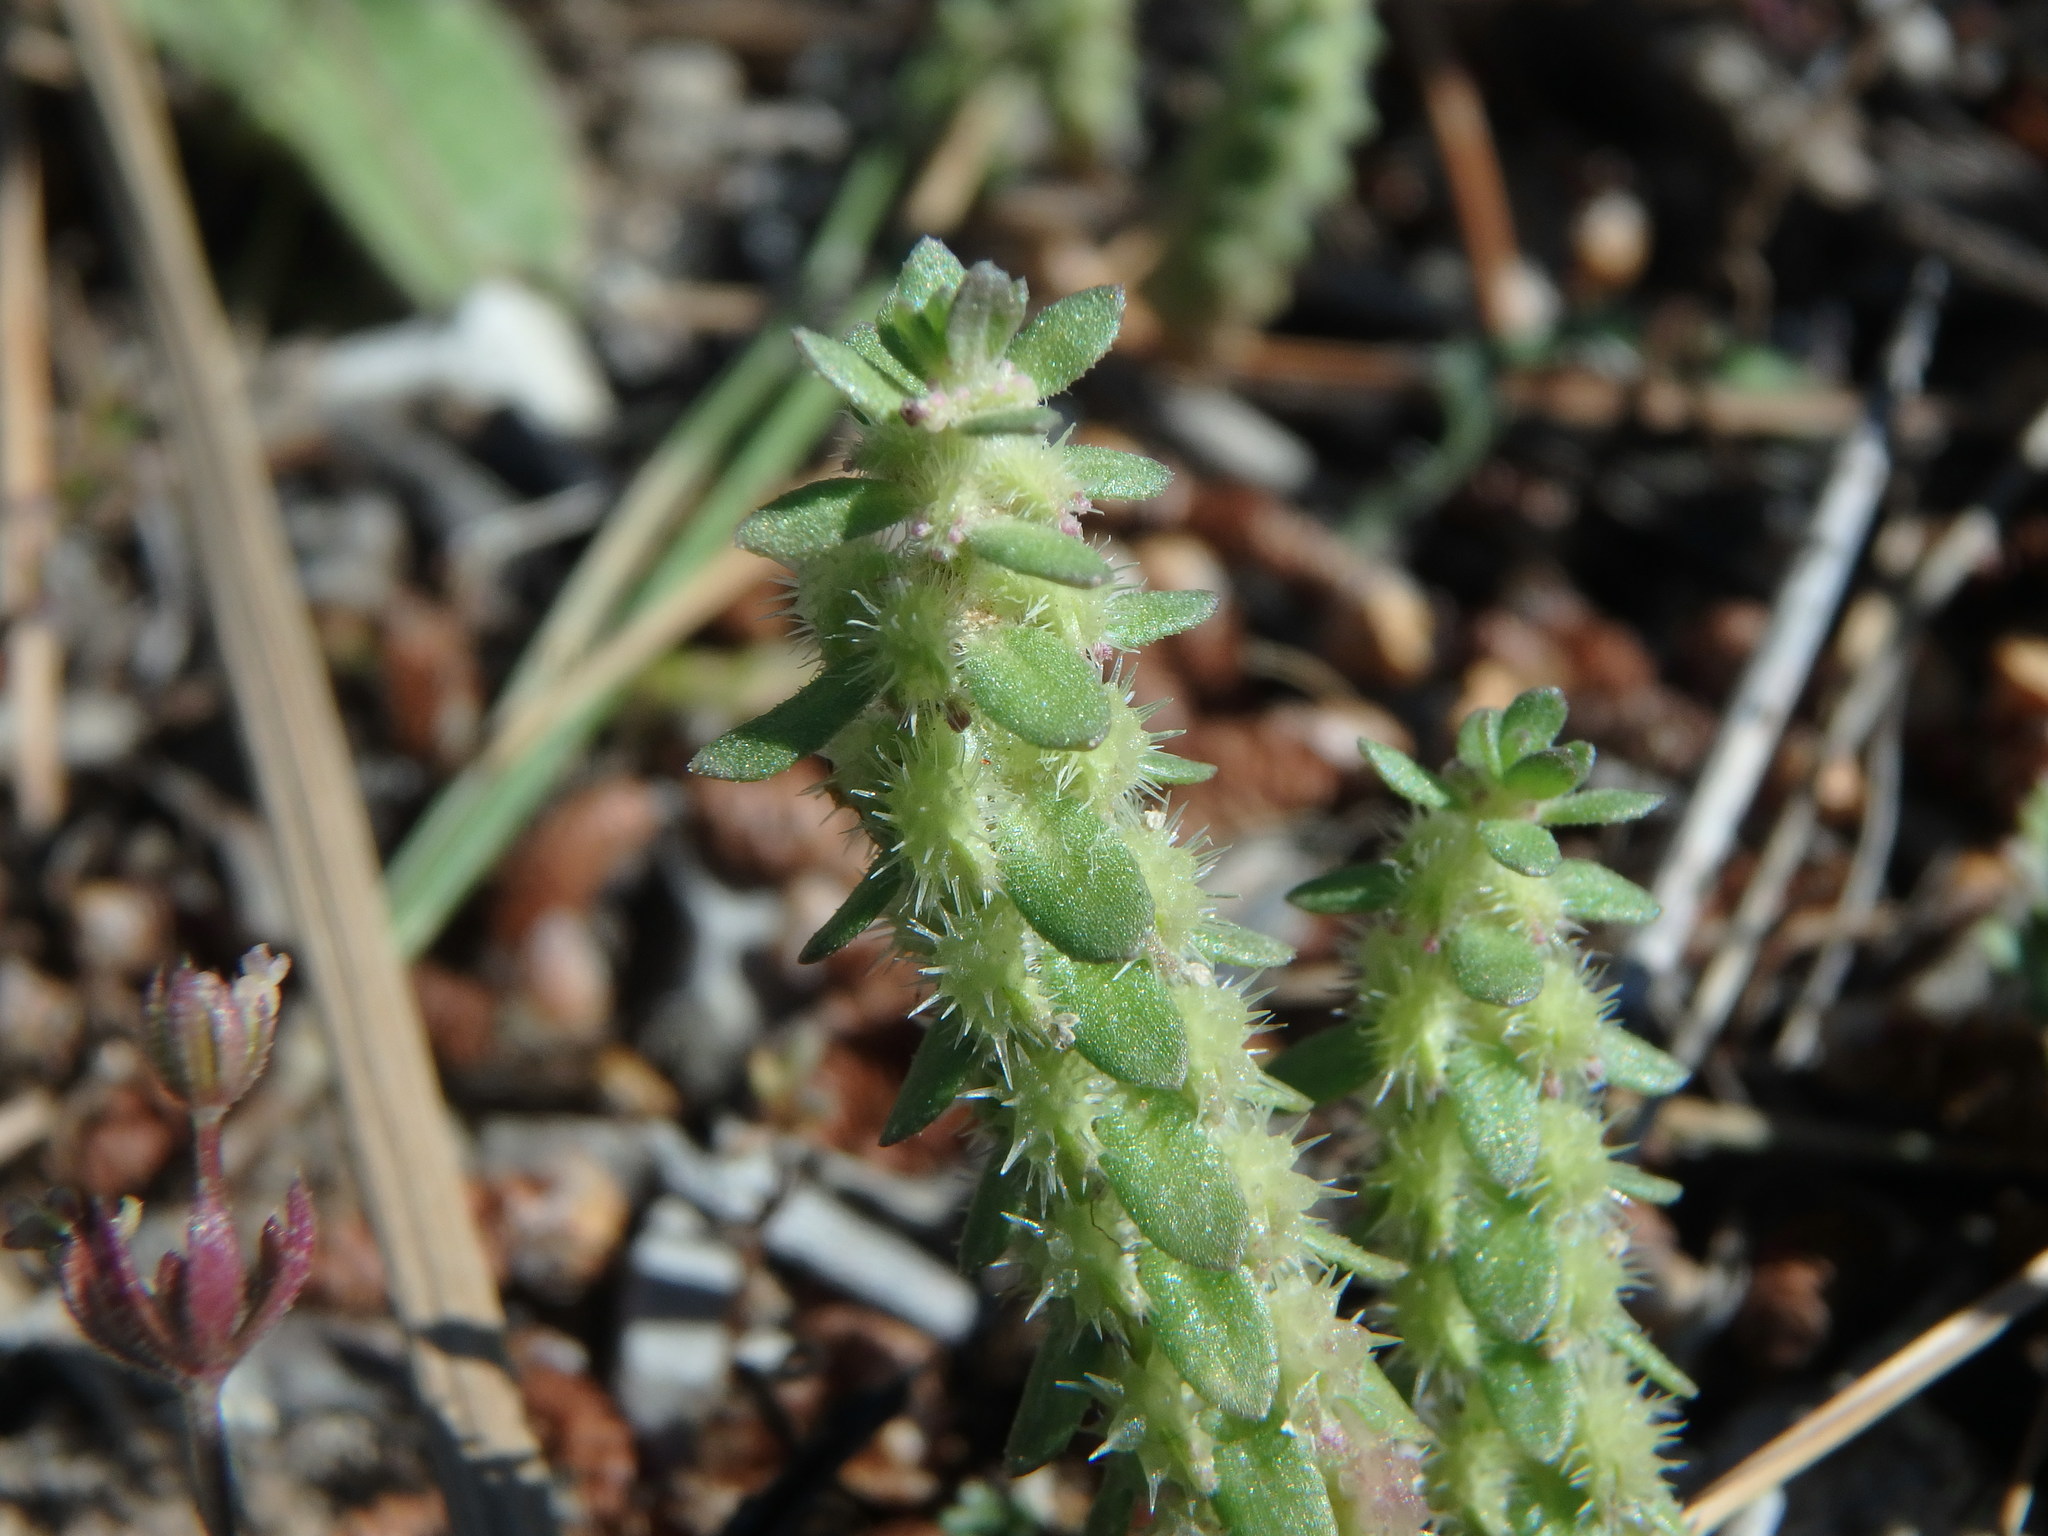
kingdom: Plantae
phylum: Tracheophyta
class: Magnoliopsida
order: Gentianales
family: Rubiaceae
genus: Valantia
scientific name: Valantia muralis
